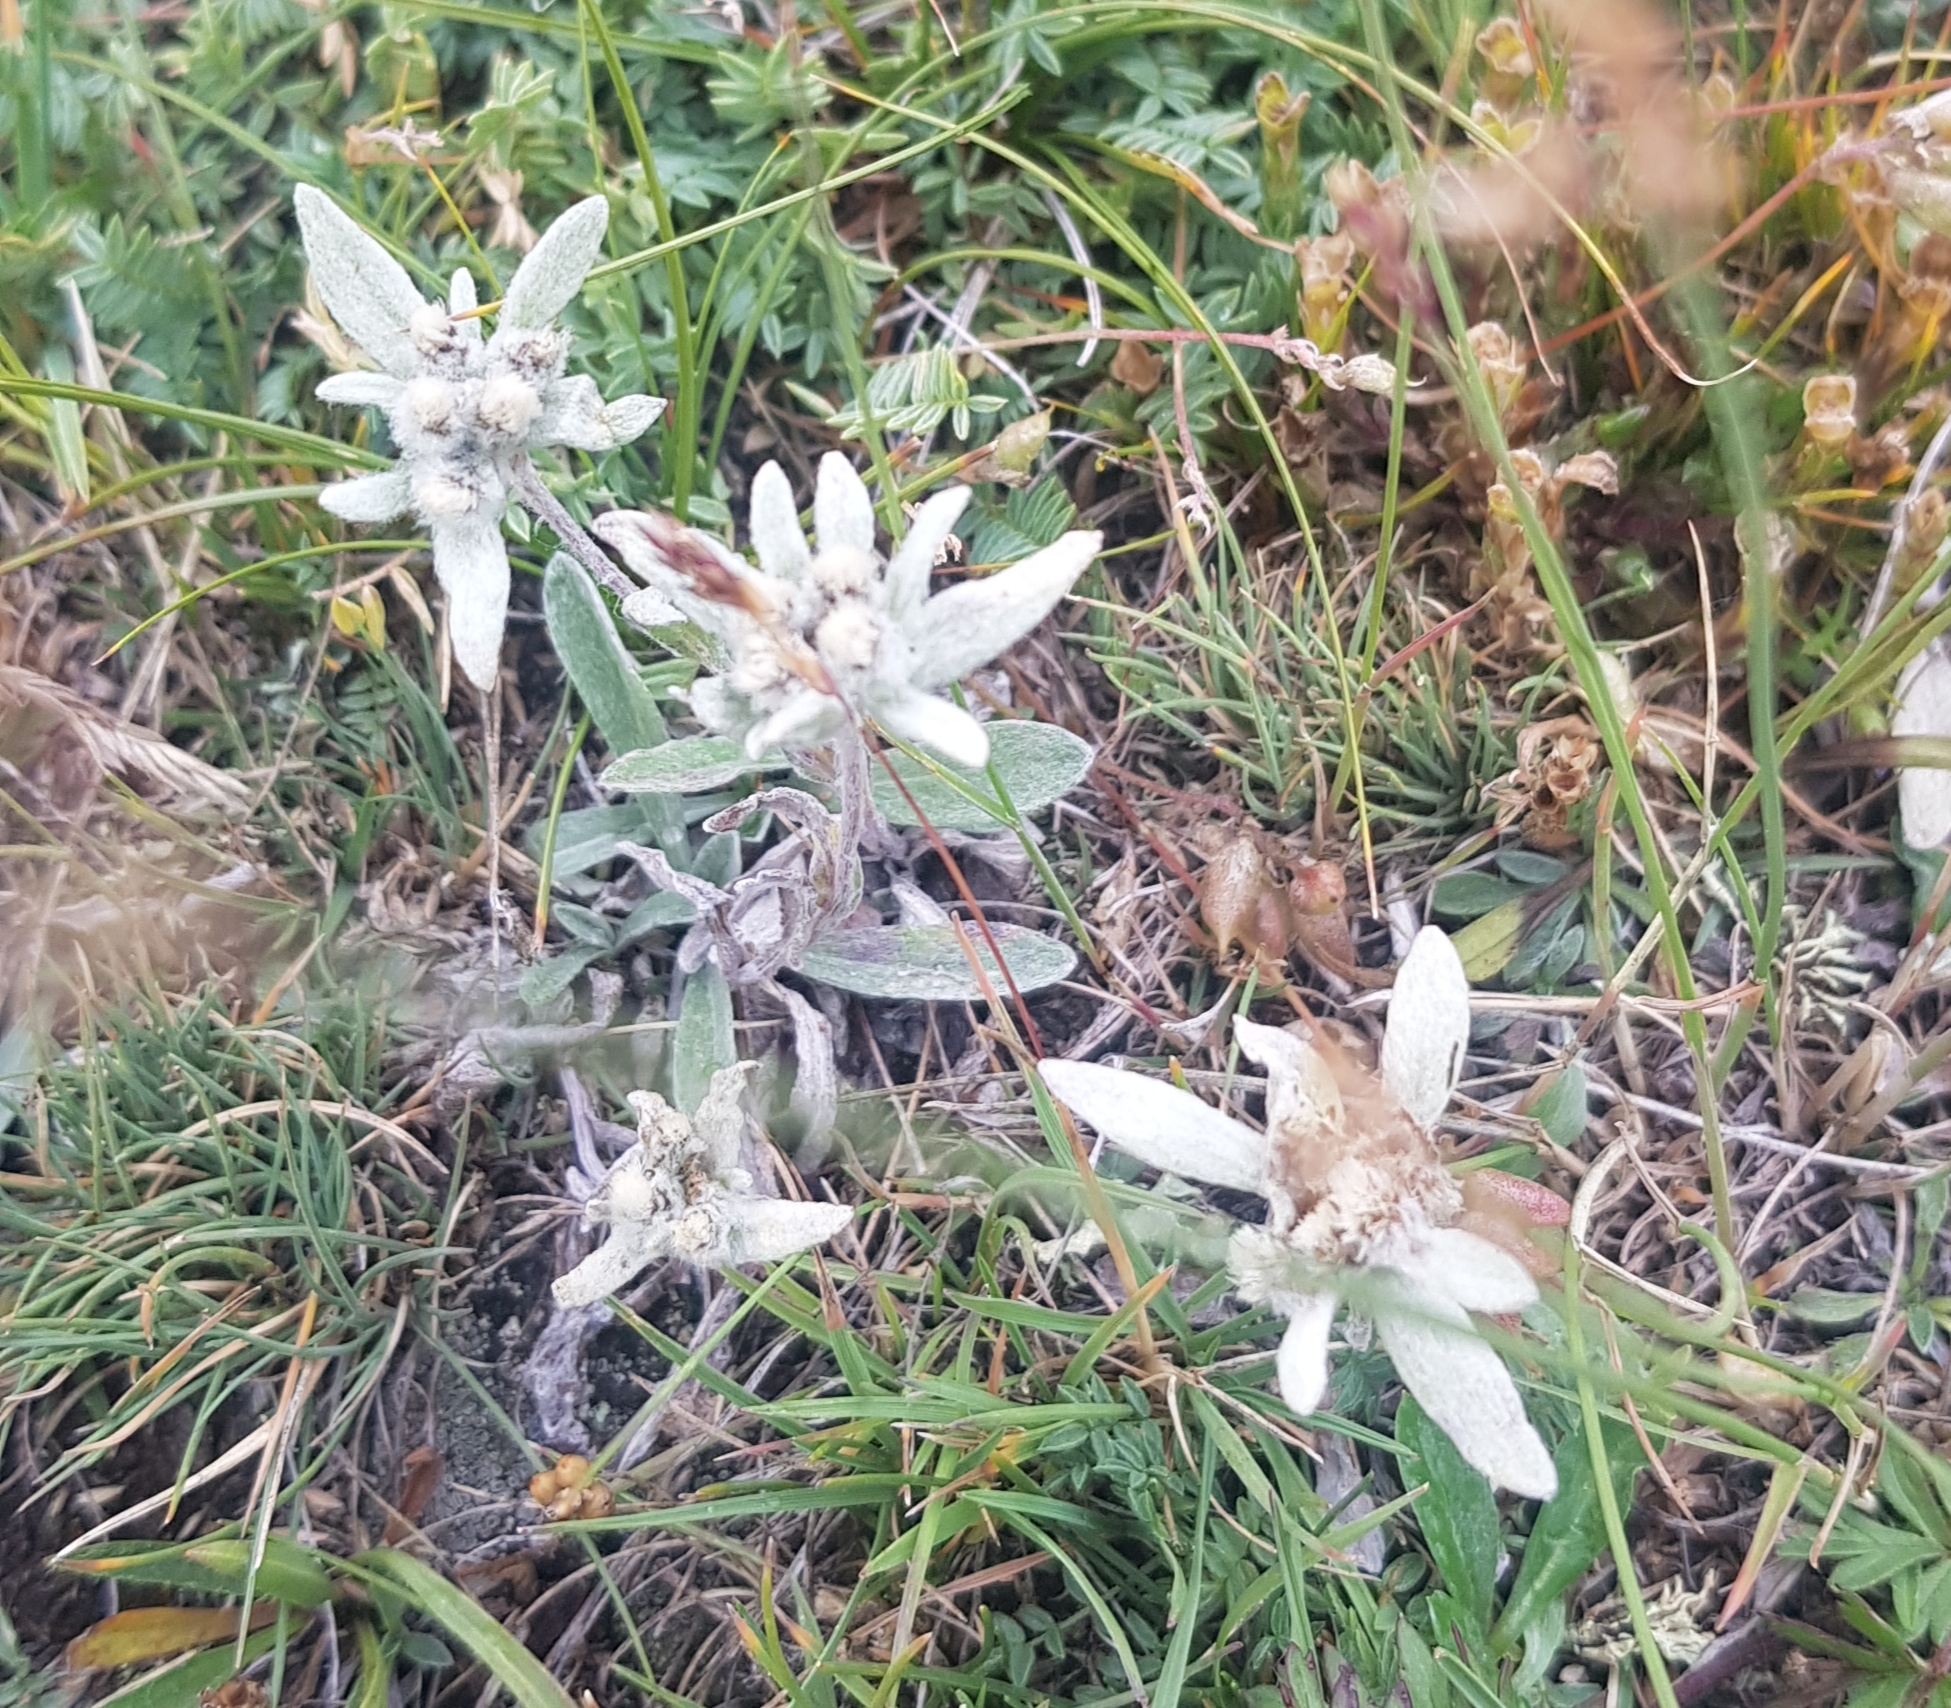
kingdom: Plantae
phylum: Tracheophyta
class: Magnoliopsida
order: Asterales
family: Asteraceae
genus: Leontopodium
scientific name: Leontopodium leontopodinum
